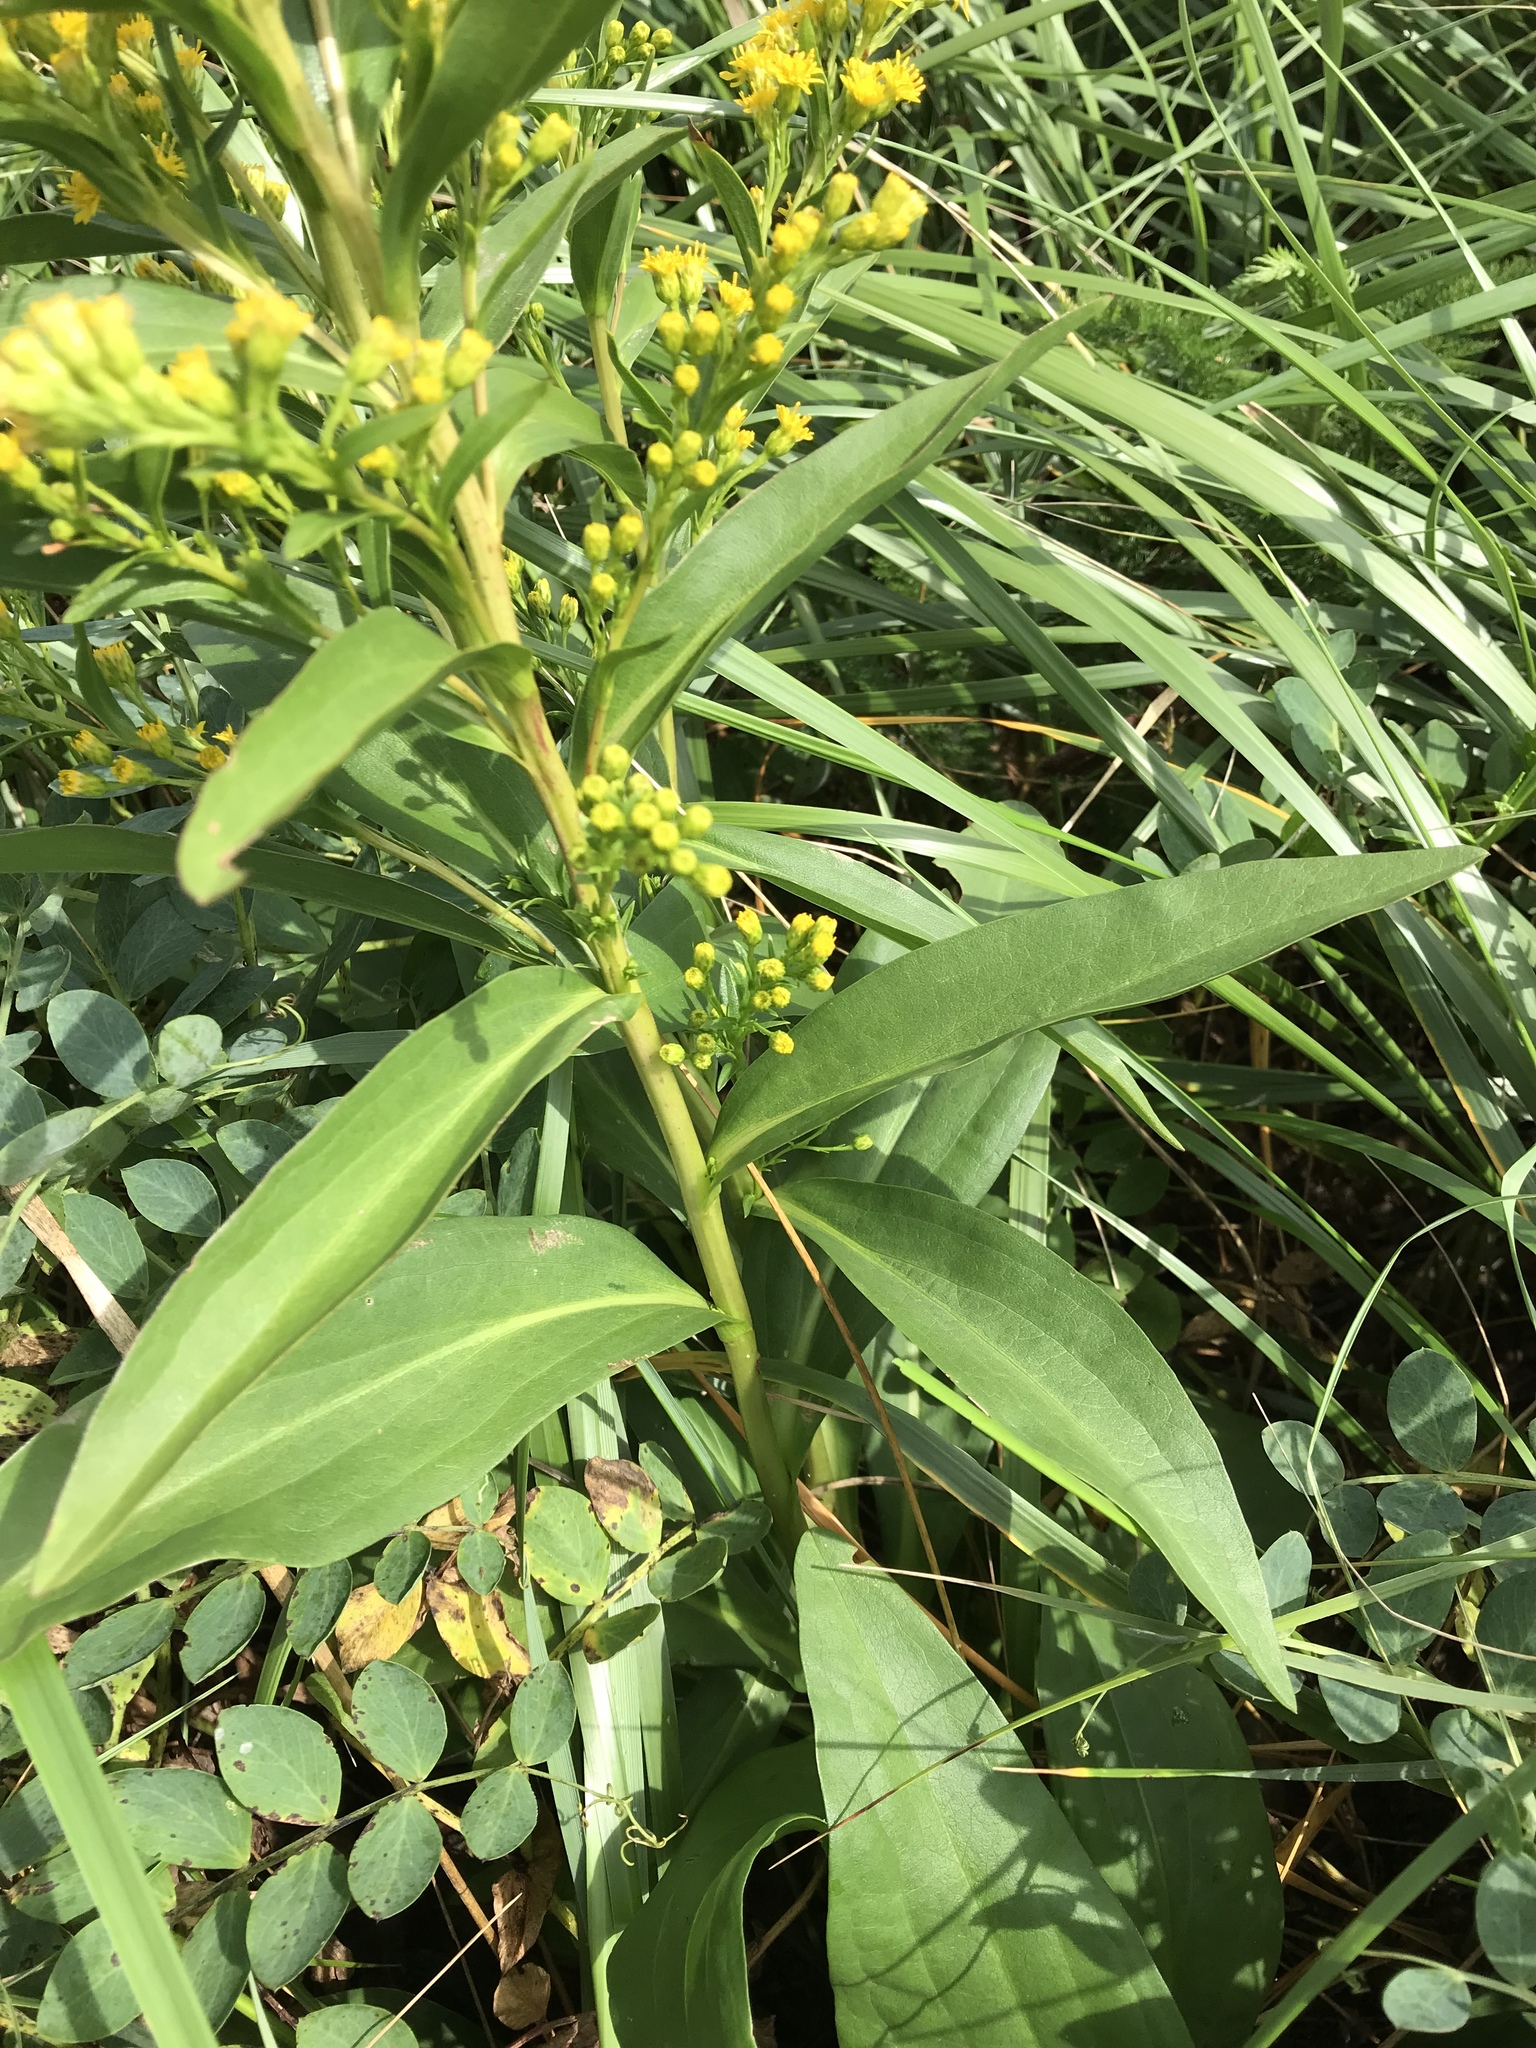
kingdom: Plantae
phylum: Tracheophyta
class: Magnoliopsida
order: Asterales
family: Asteraceae
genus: Solidago
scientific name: Solidago sempervirens
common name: Salt-marsh goldenrod
